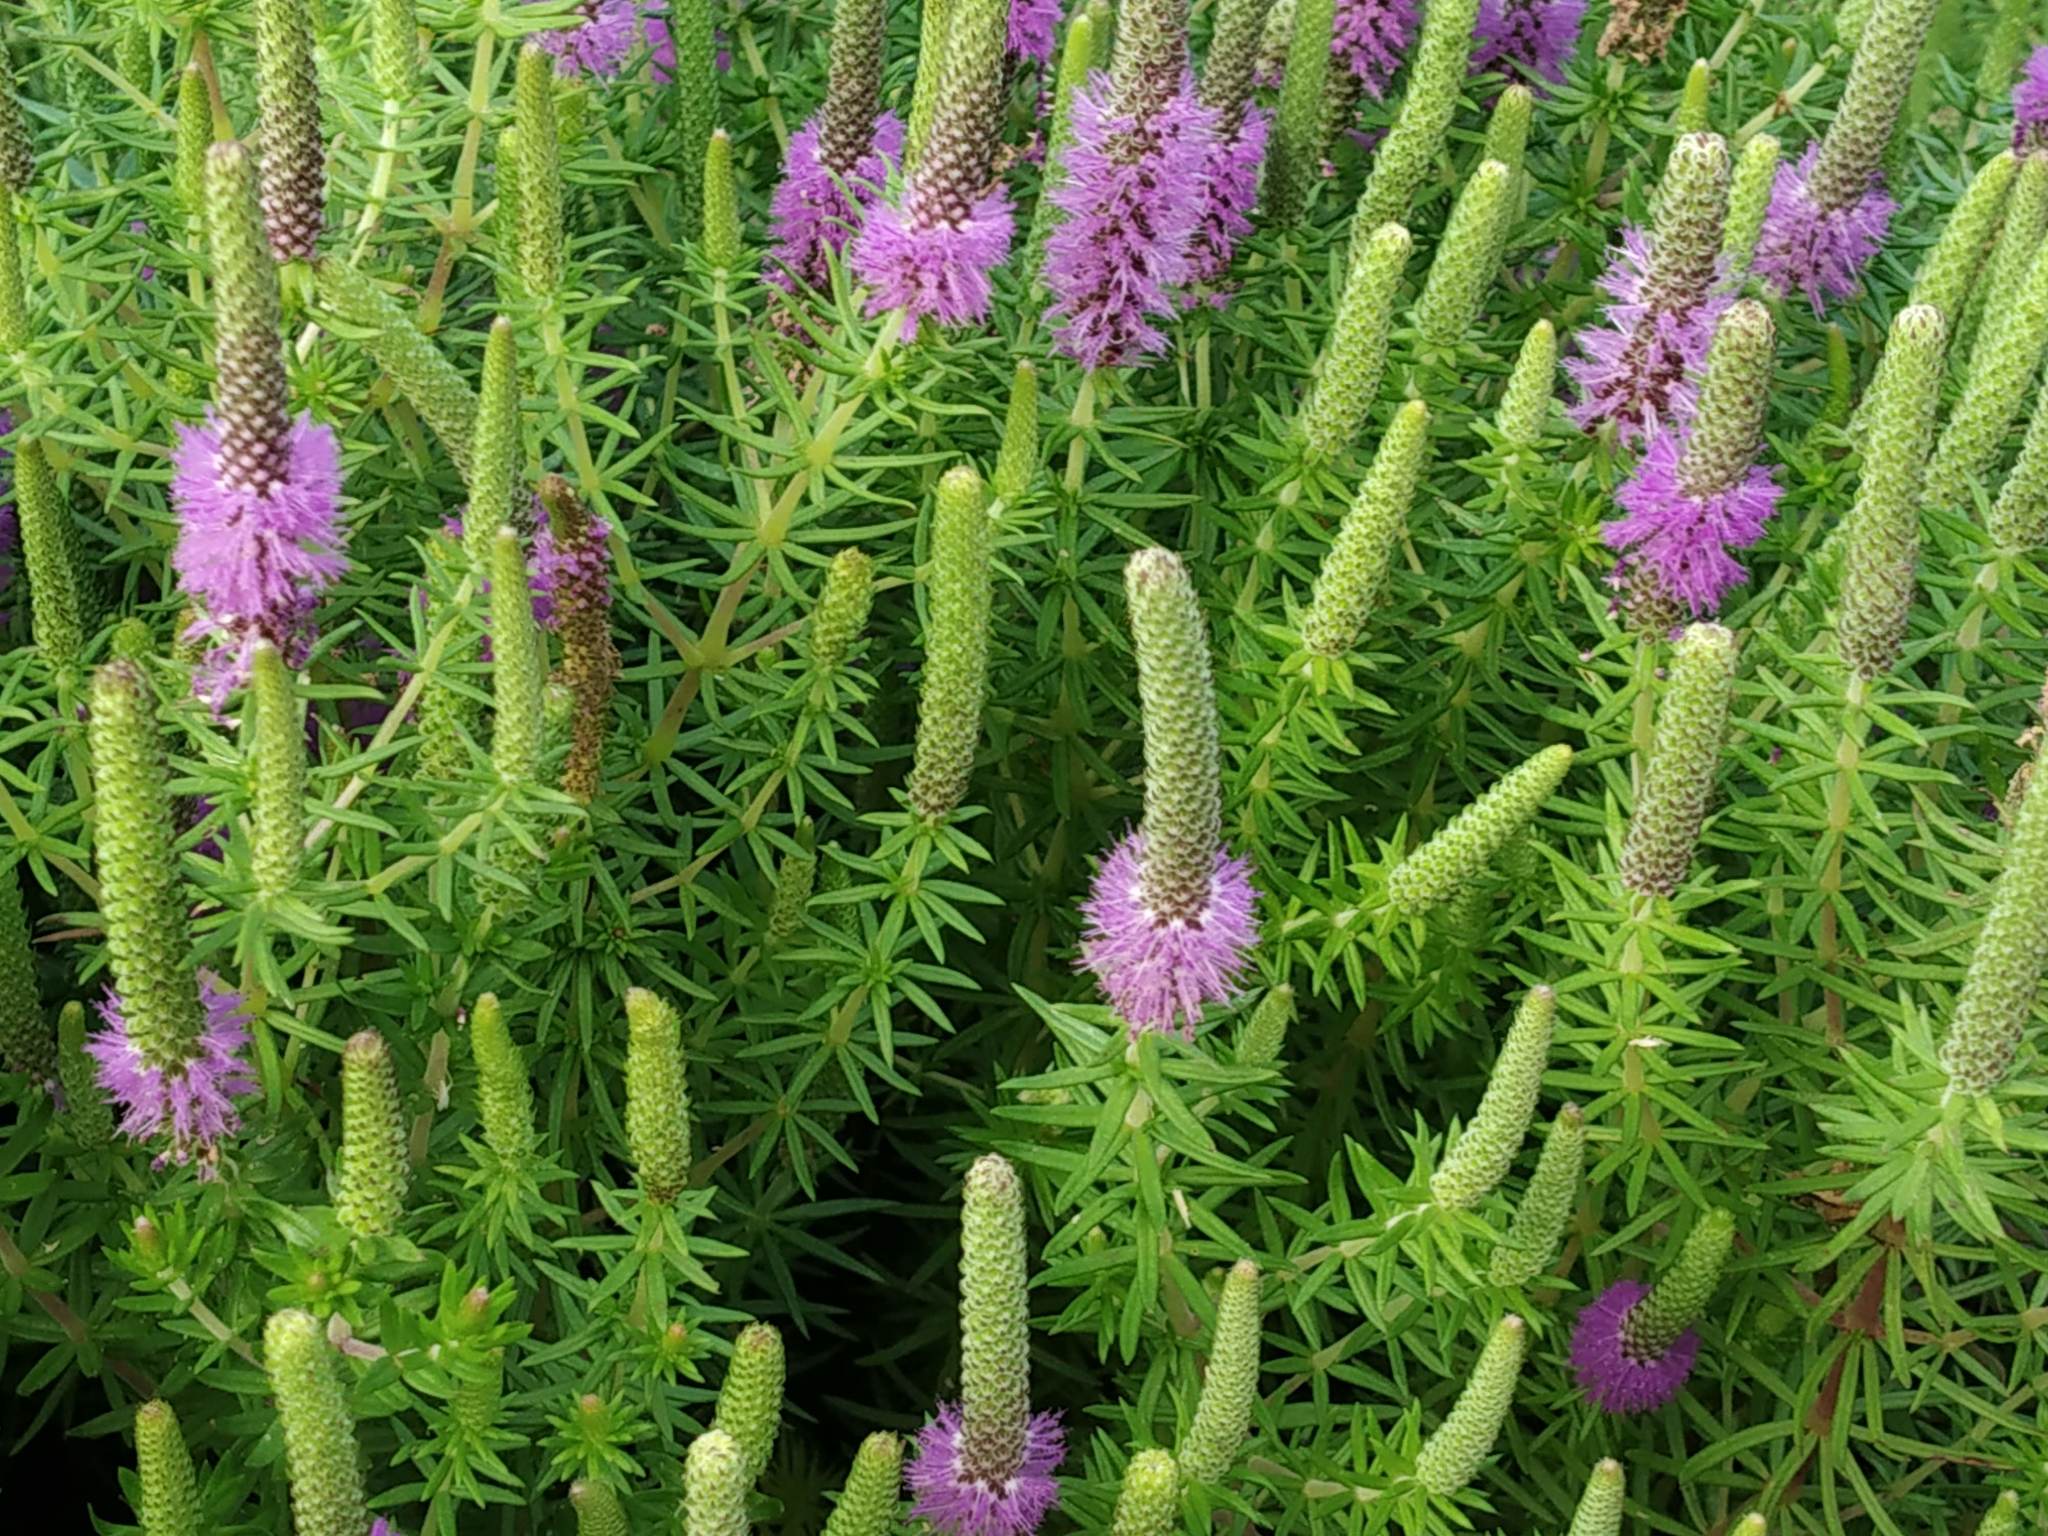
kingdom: Plantae
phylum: Tracheophyta
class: Magnoliopsida
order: Lamiales
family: Lamiaceae
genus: Pogostemon
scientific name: Pogostemon deccanensis
